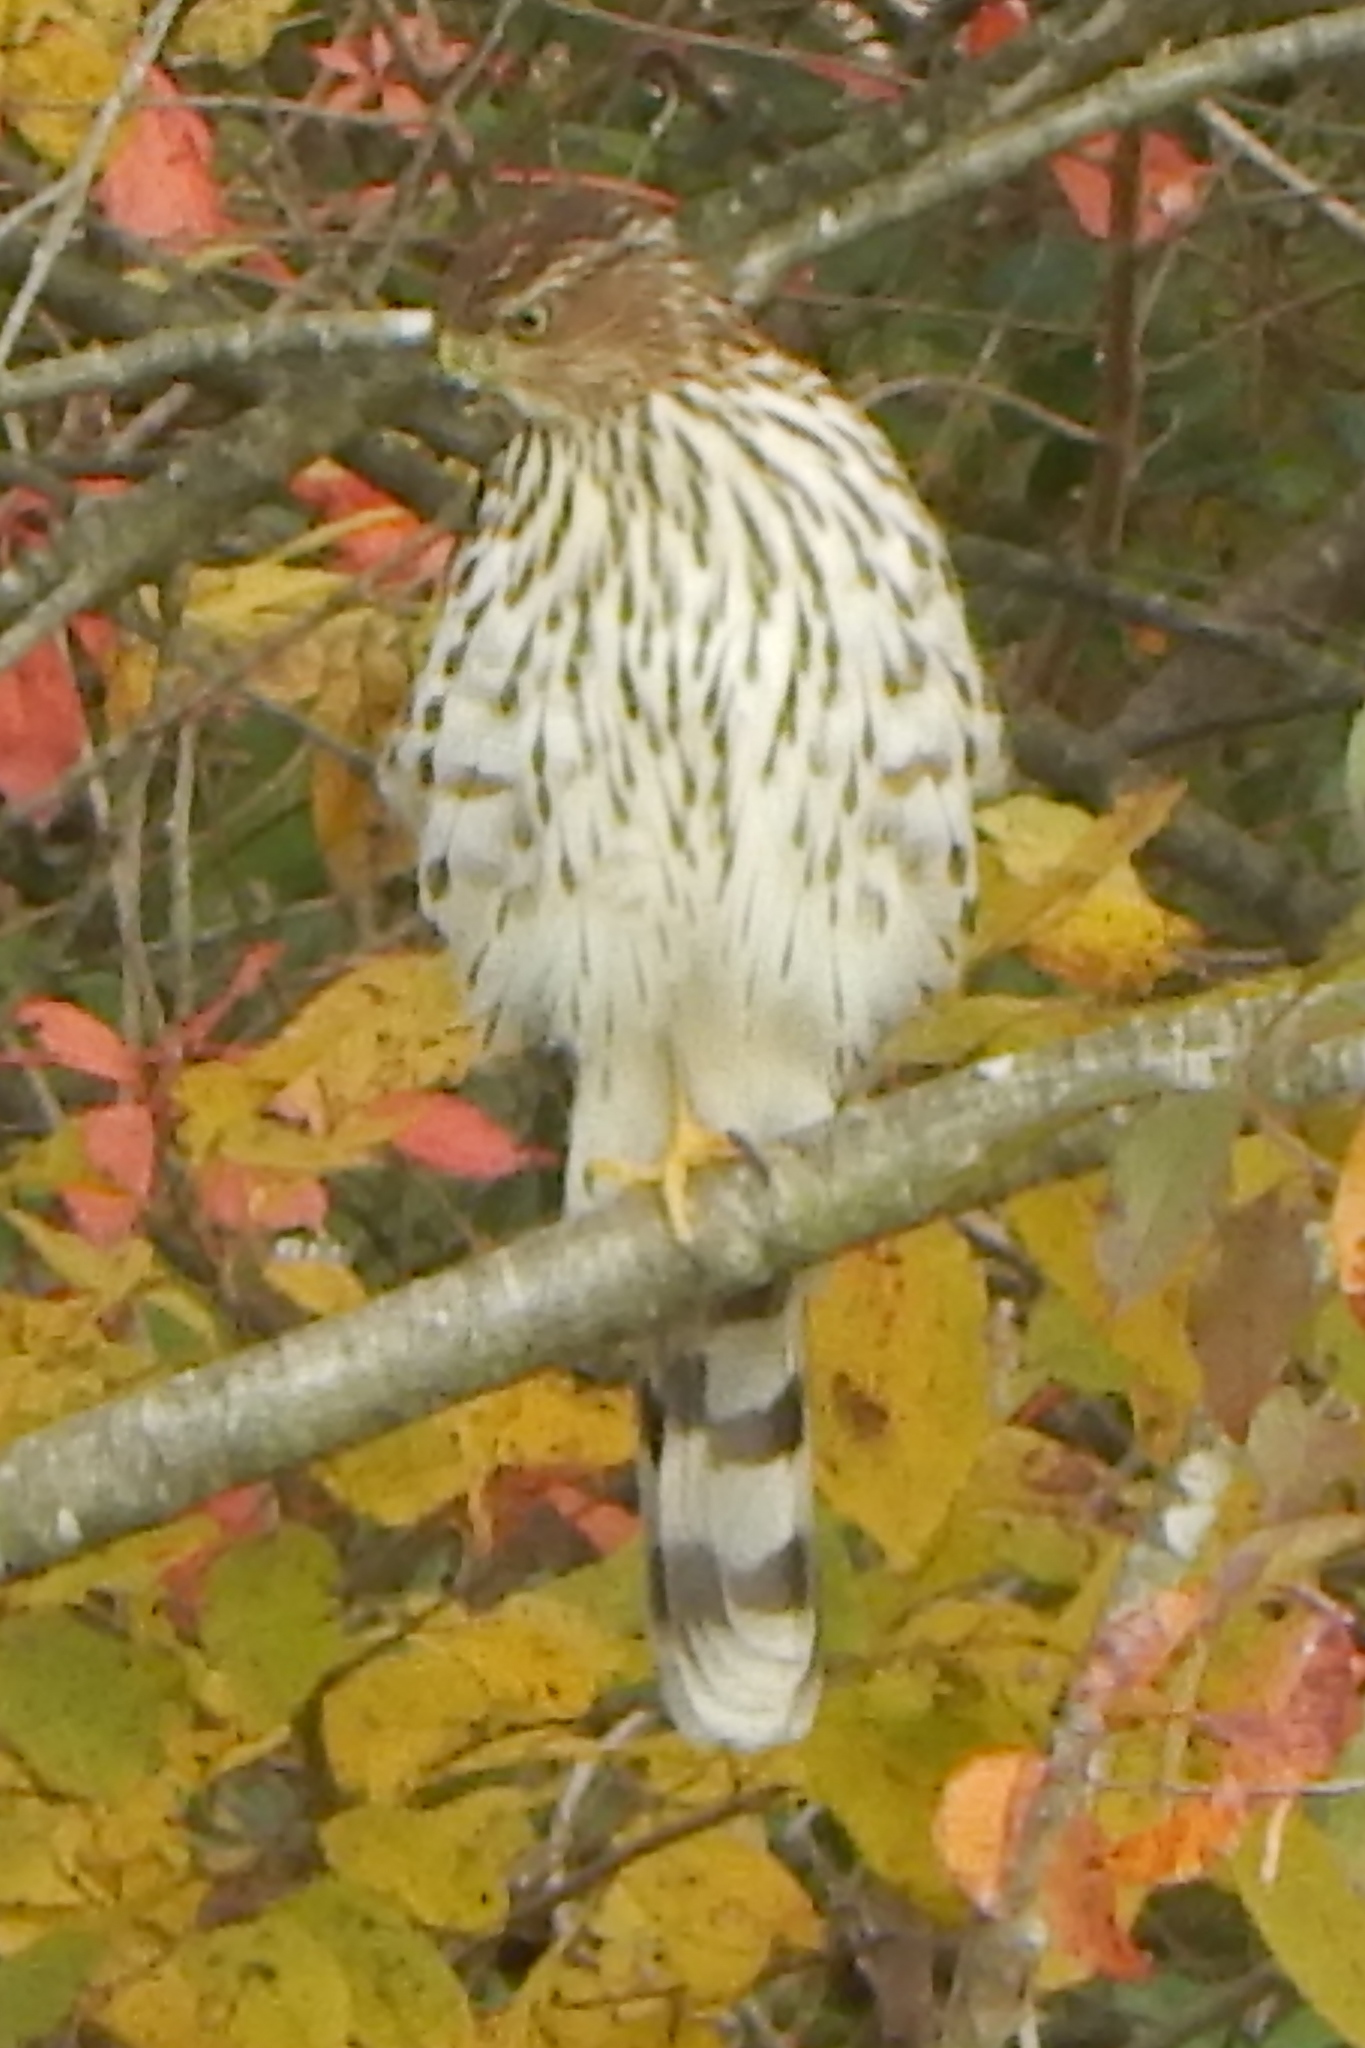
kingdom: Animalia
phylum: Chordata
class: Aves
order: Accipitriformes
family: Accipitridae
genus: Accipiter
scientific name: Accipiter cooperii
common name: Cooper's hawk
